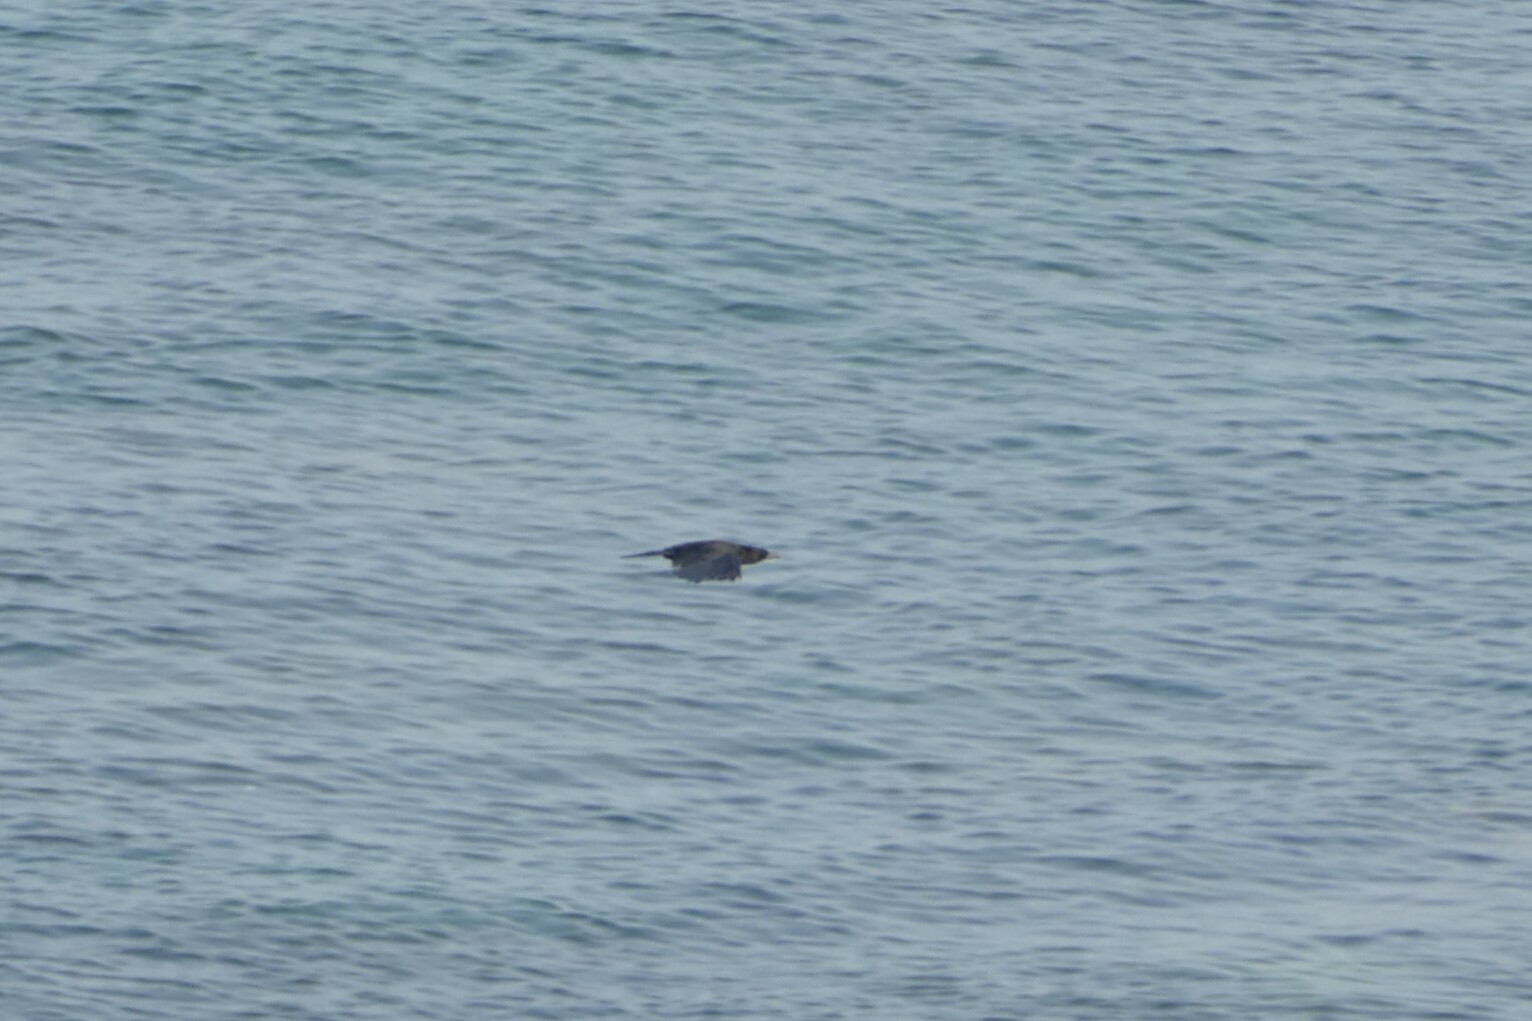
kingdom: Animalia
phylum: Chordata
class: Aves
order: Passeriformes
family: Corvidae
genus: Corvus
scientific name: Corvus corax
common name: Common raven
